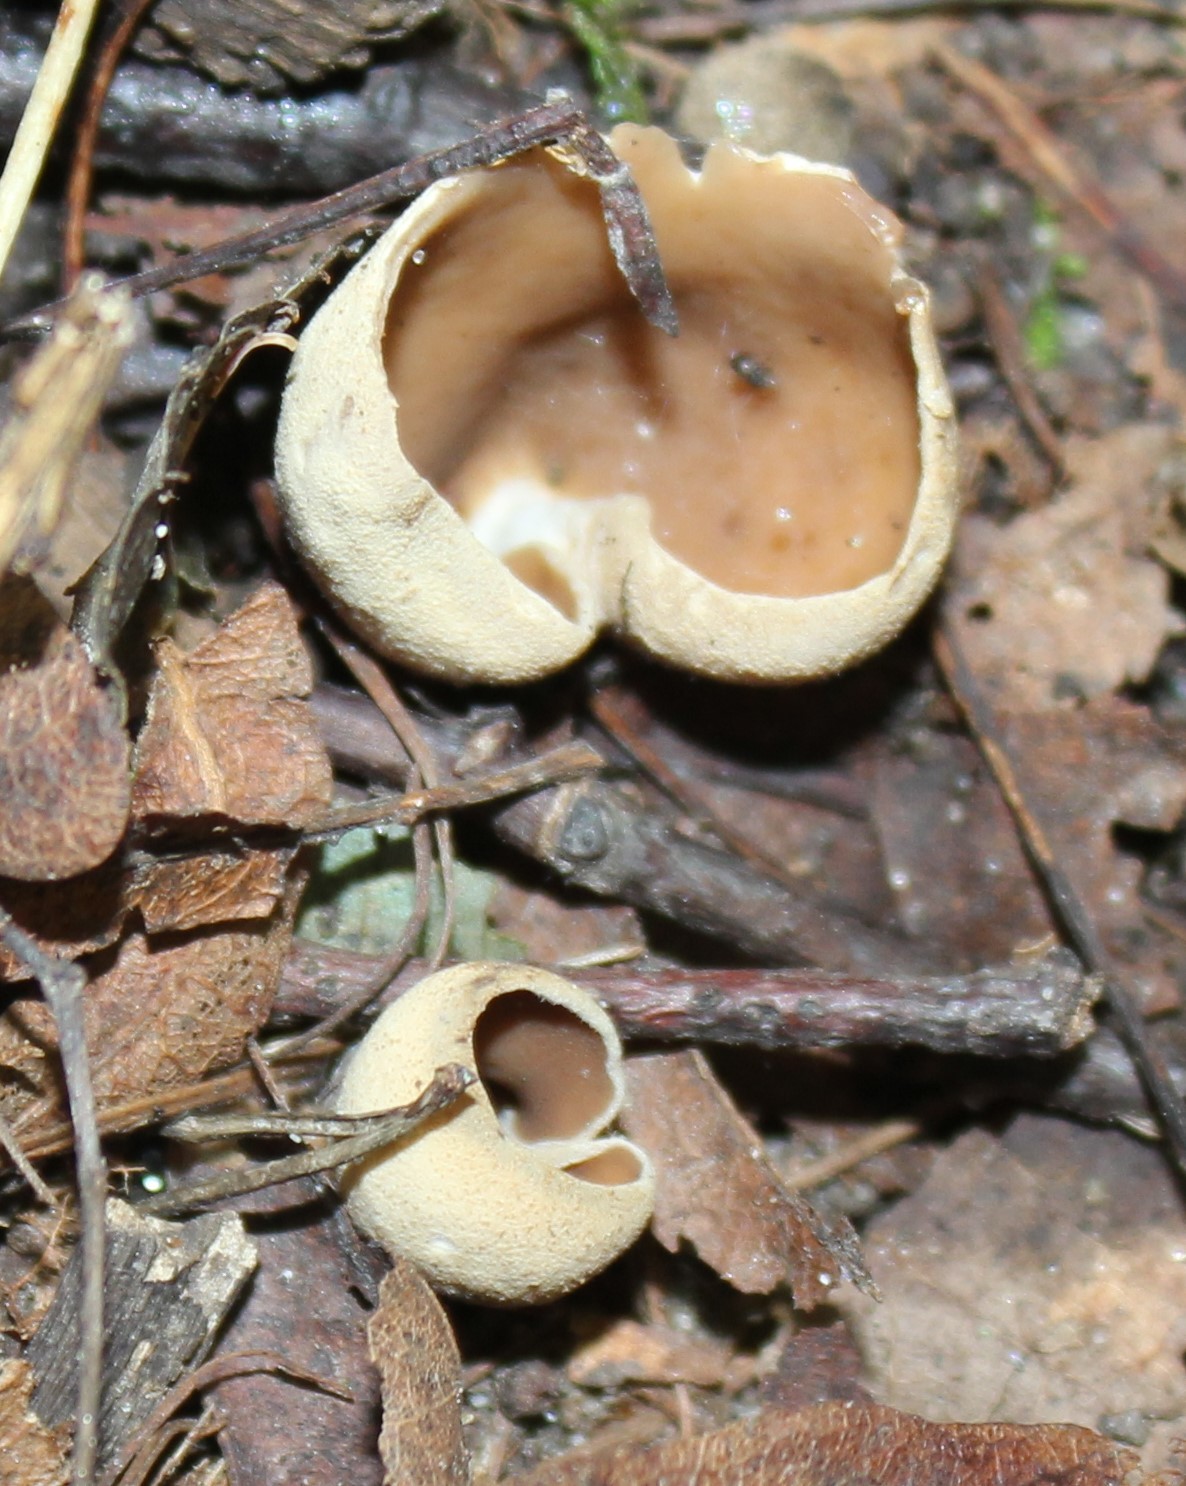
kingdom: Fungi
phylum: Ascomycota
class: Pezizomycetes
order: Pezizales
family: Otideaceae
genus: Otidea
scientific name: Otidea alutacea
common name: Tan ear
